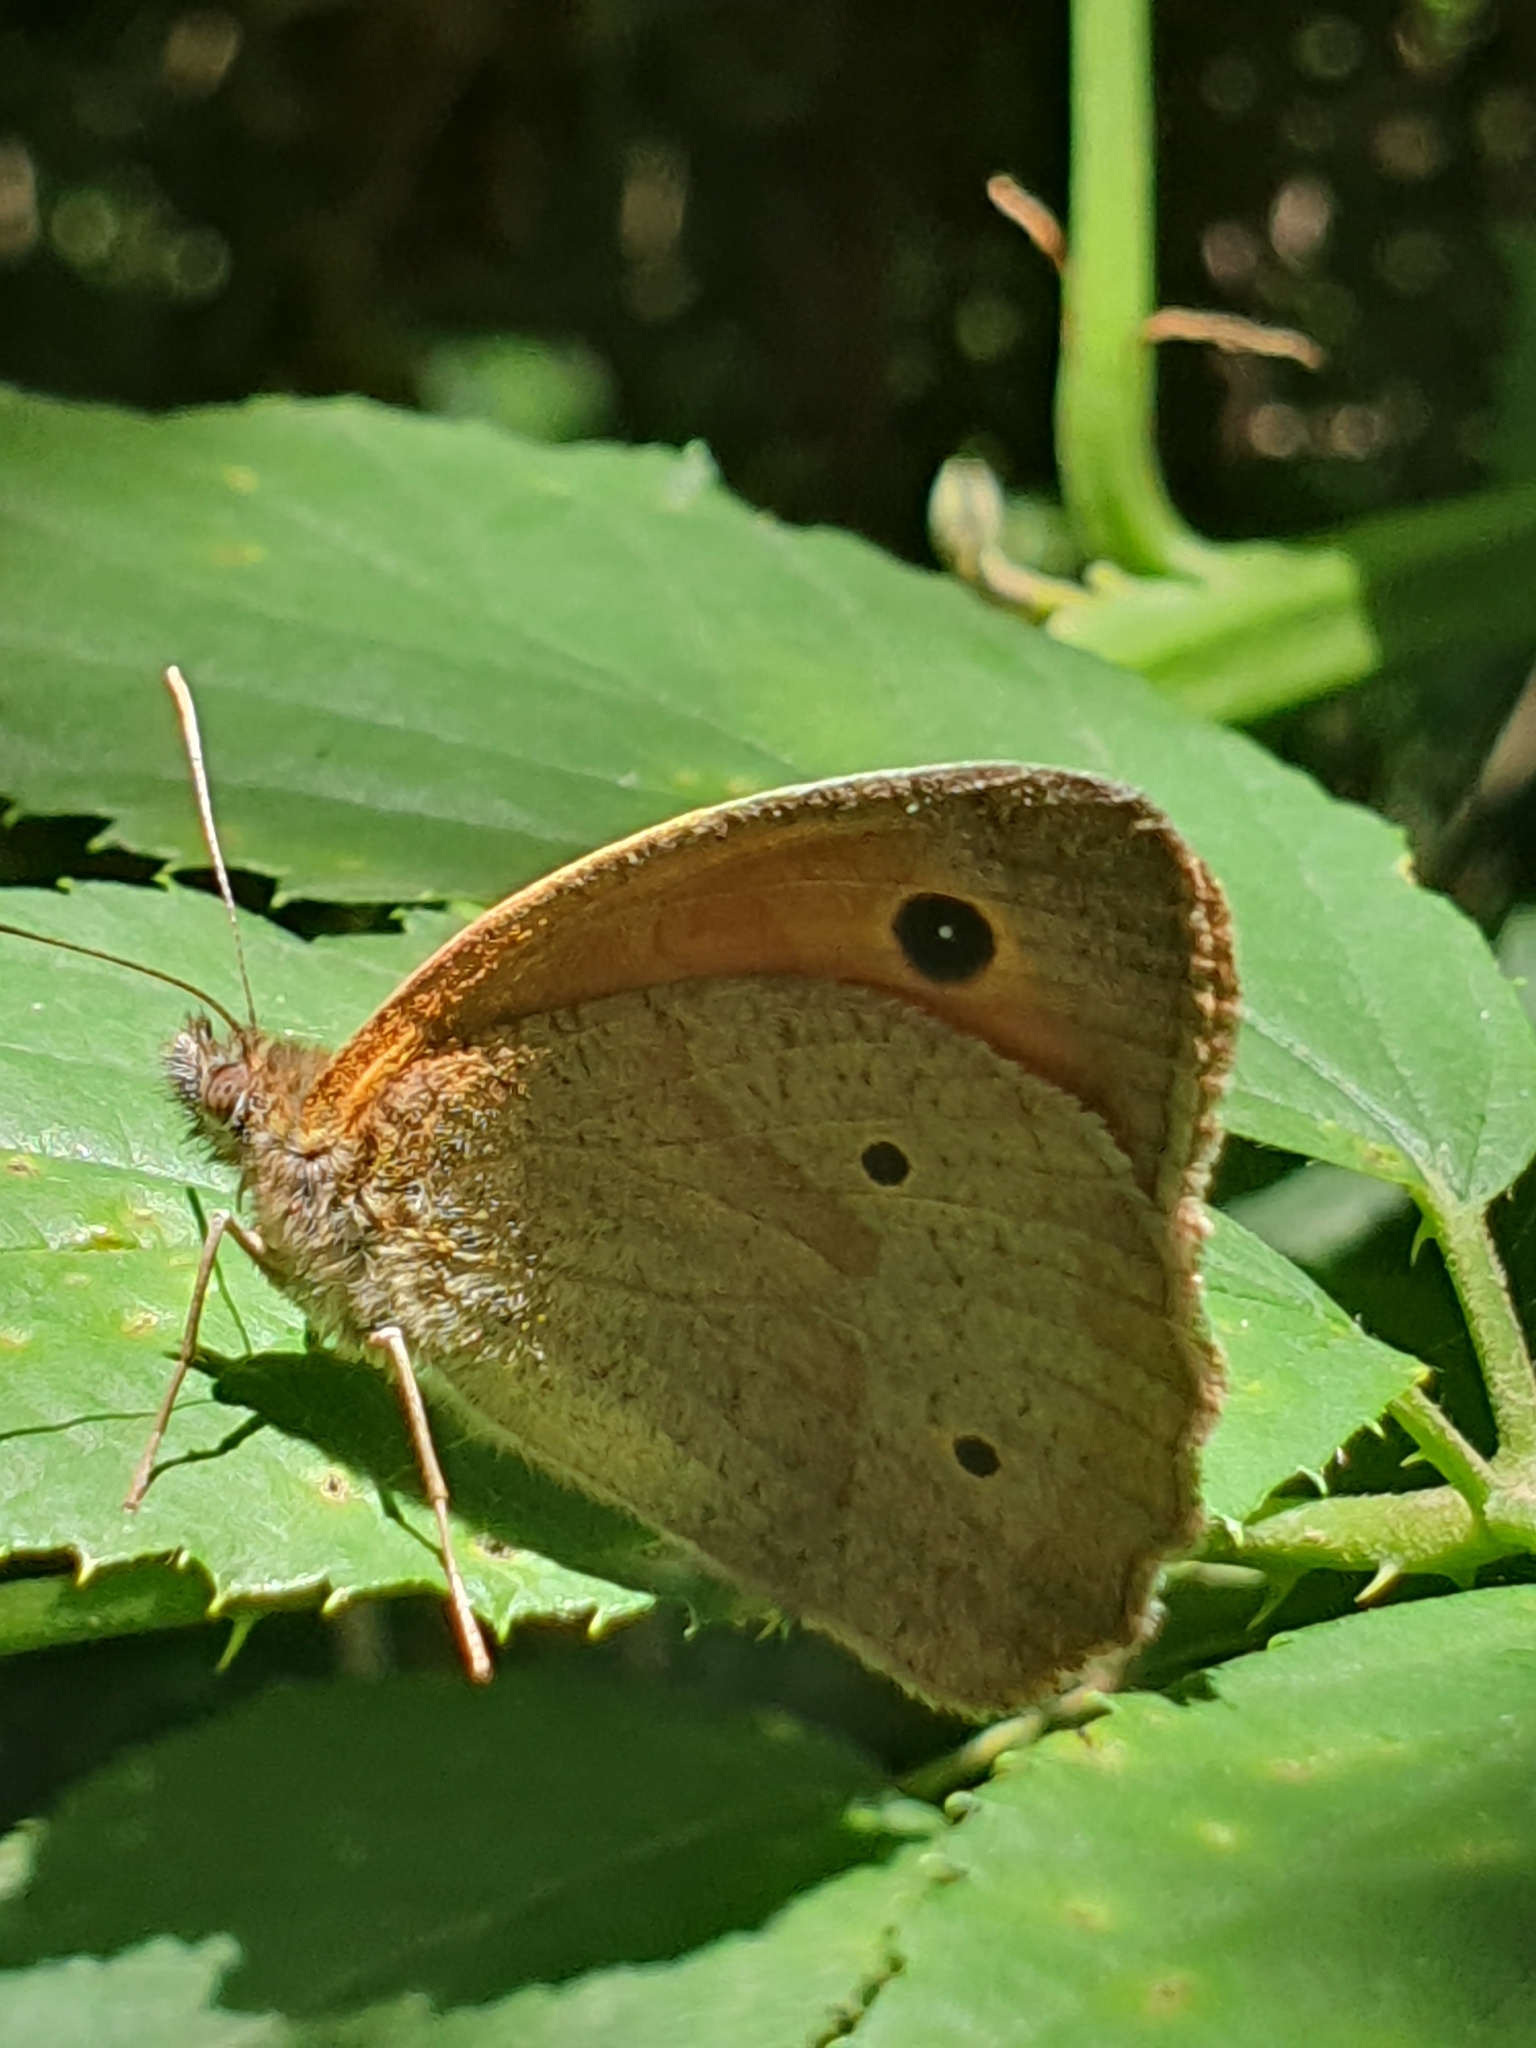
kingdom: Animalia
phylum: Arthropoda
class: Insecta
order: Lepidoptera
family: Nymphalidae
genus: Maniola
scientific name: Maniola jurtina
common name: Meadow brown
